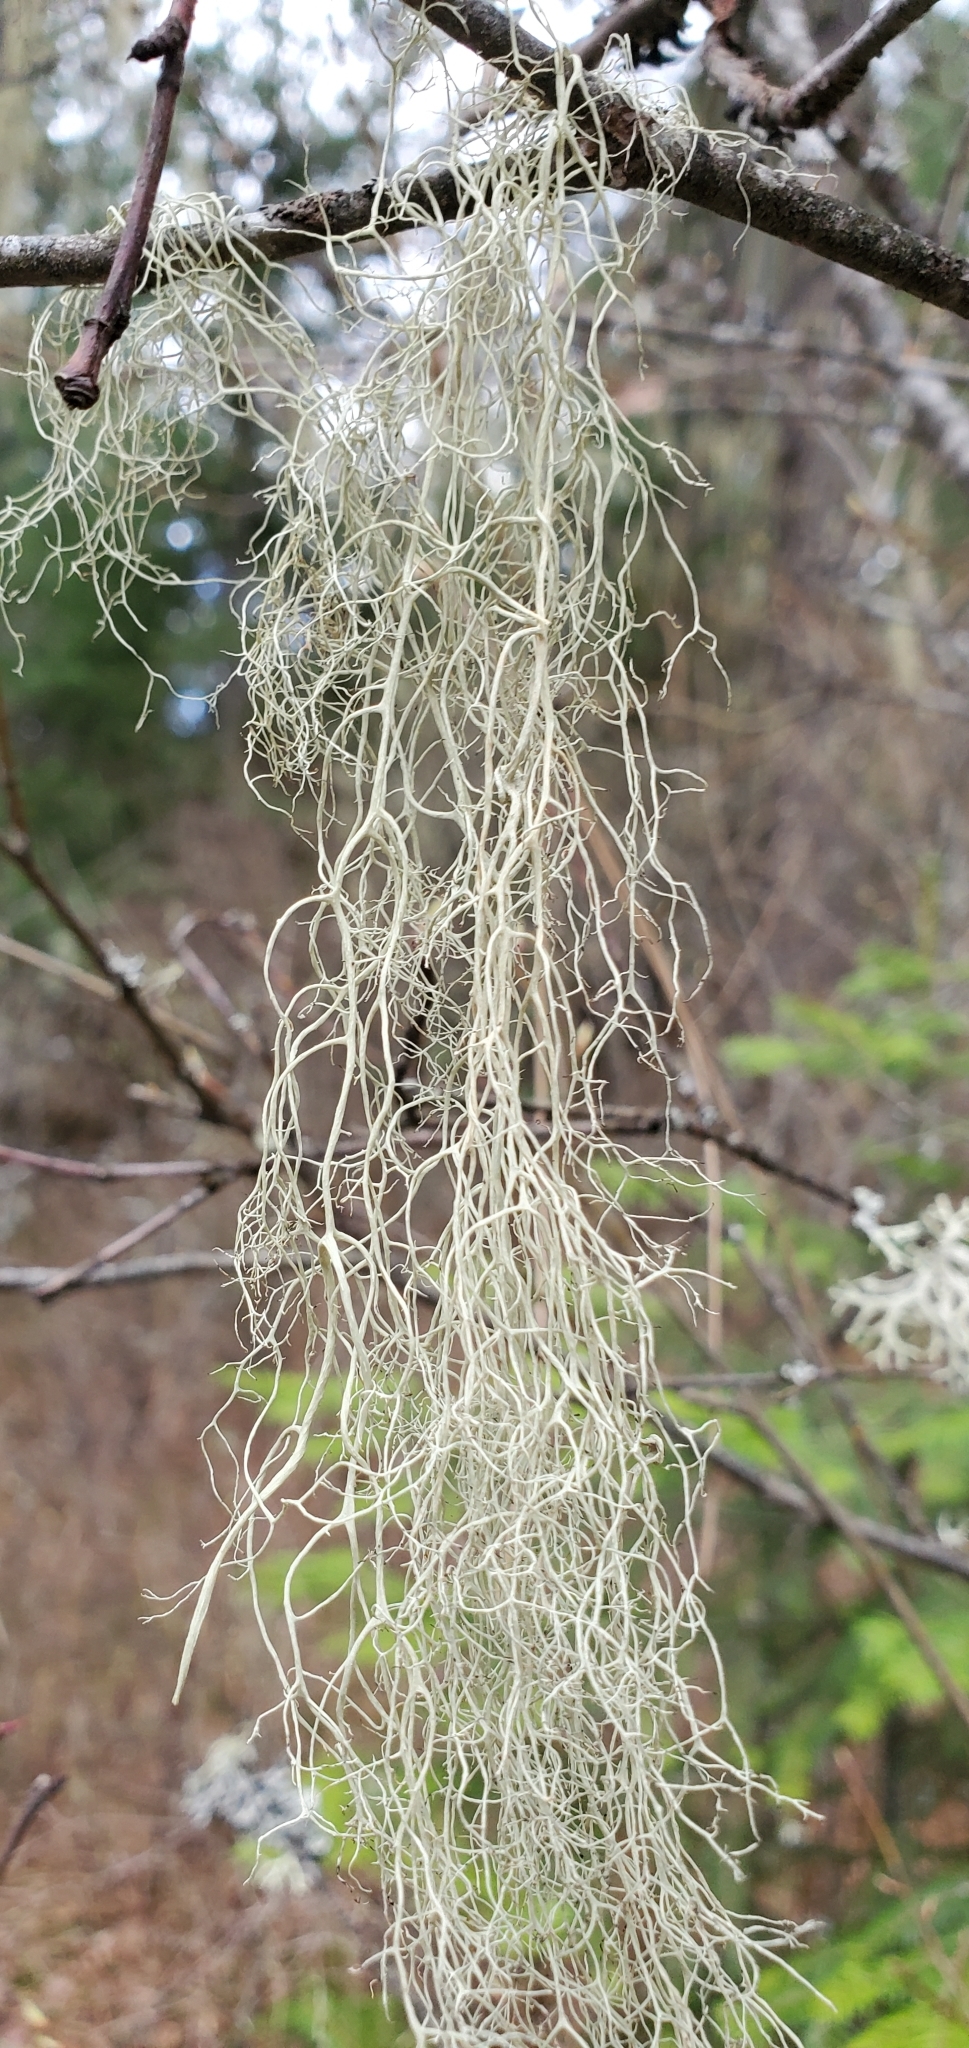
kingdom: Fungi
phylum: Ascomycota
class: Lecanoromycetes
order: Lecanorales
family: Parmeliaceae
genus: Alectoria
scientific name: Alectoria sarmentosa
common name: Witch's hair
